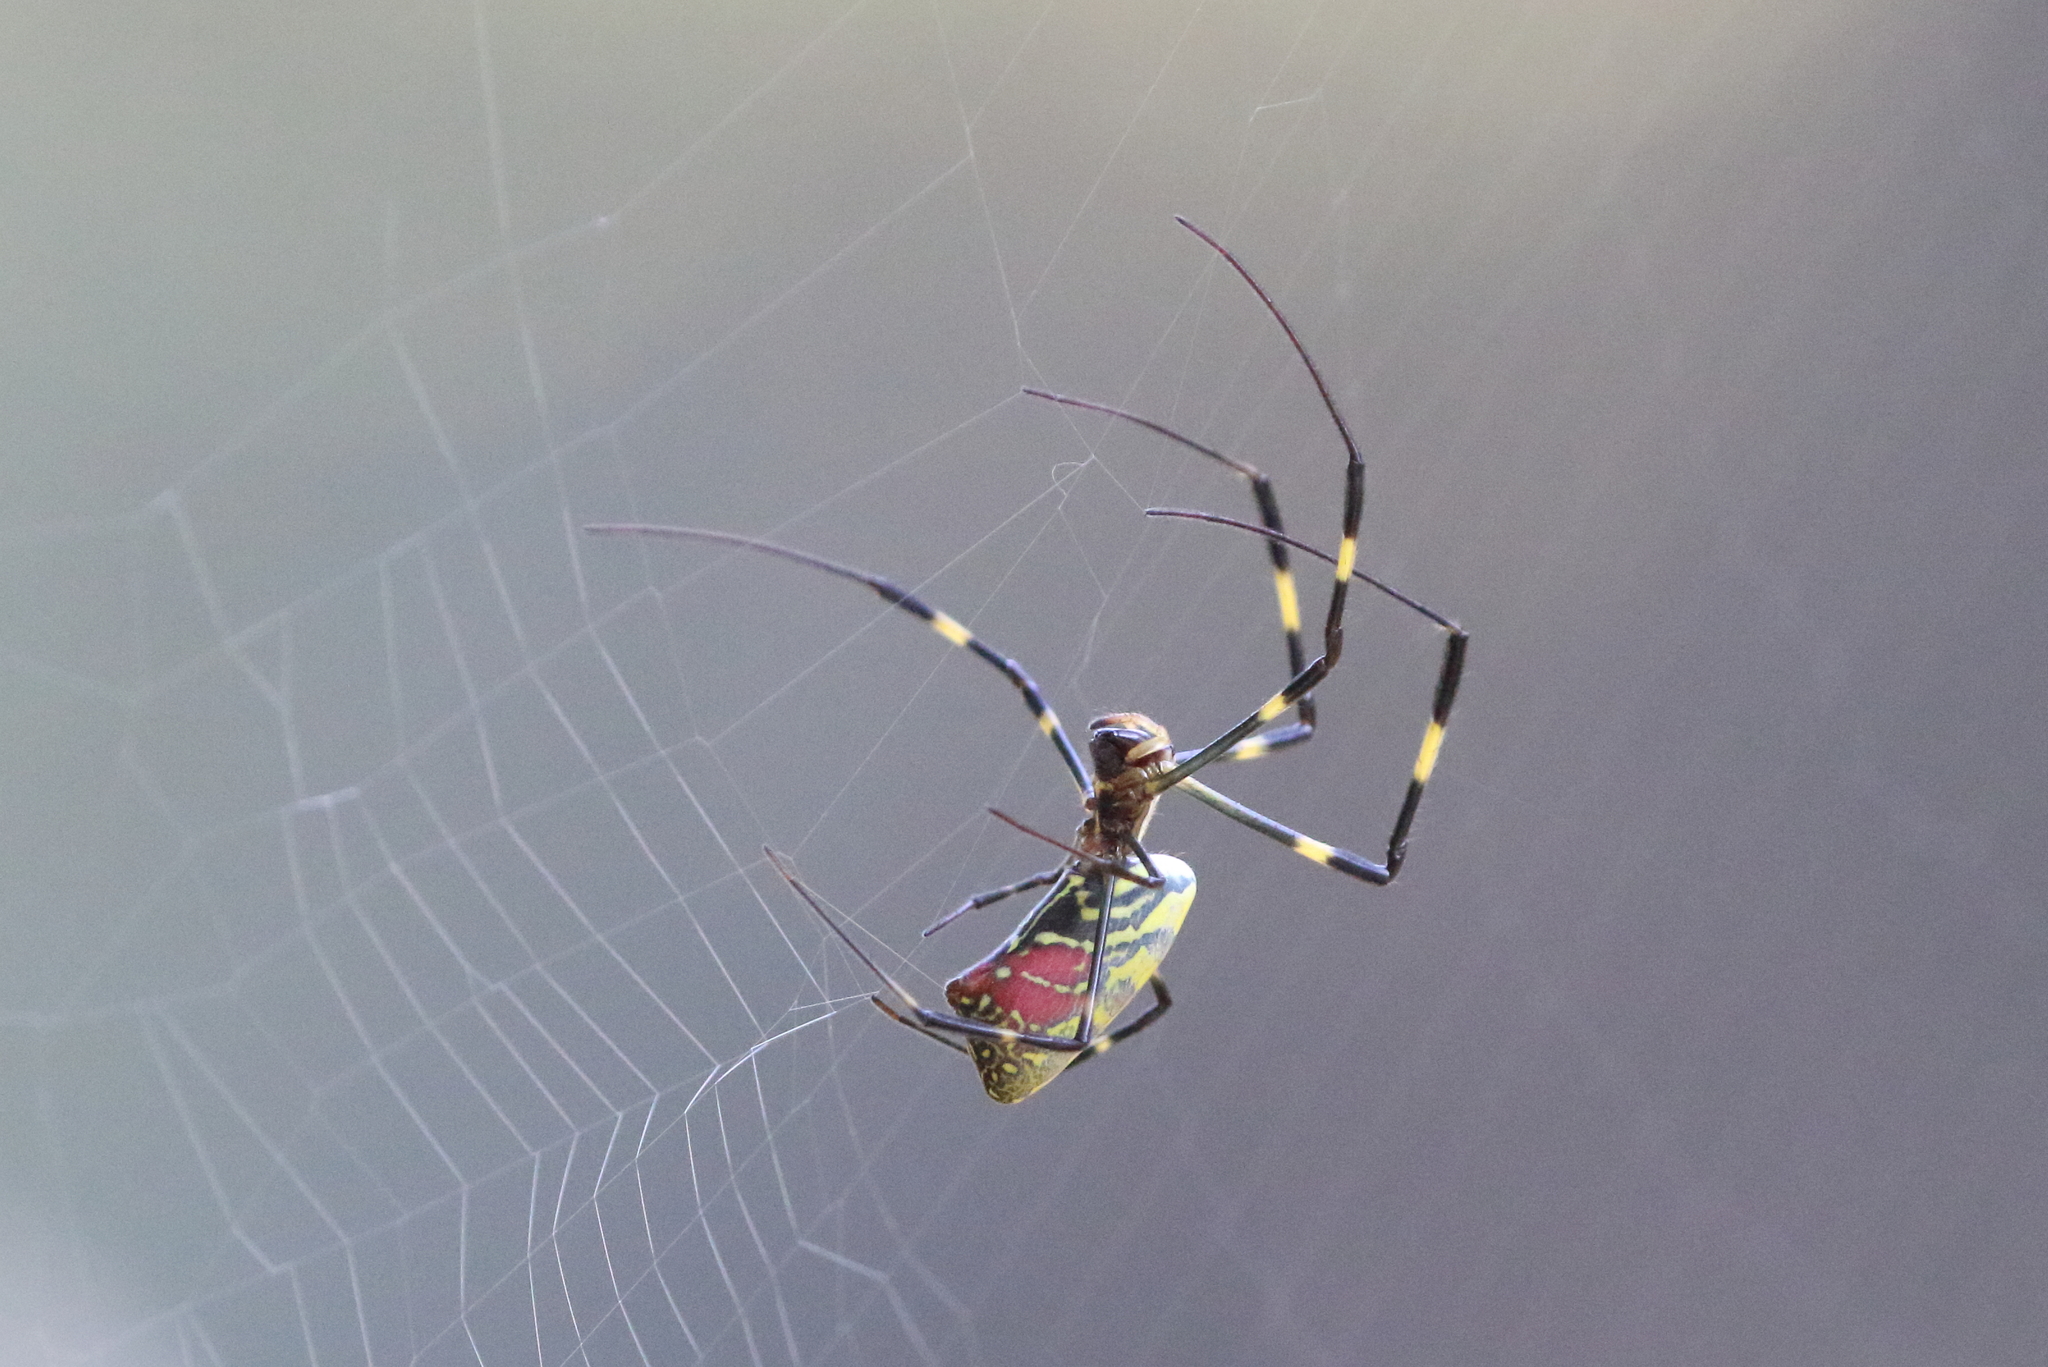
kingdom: Animalia
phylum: Arthropoda
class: Arachnida
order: Araneae
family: Araneidae
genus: Trichonephila
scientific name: Trichonephila clavata
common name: Jorō spider
